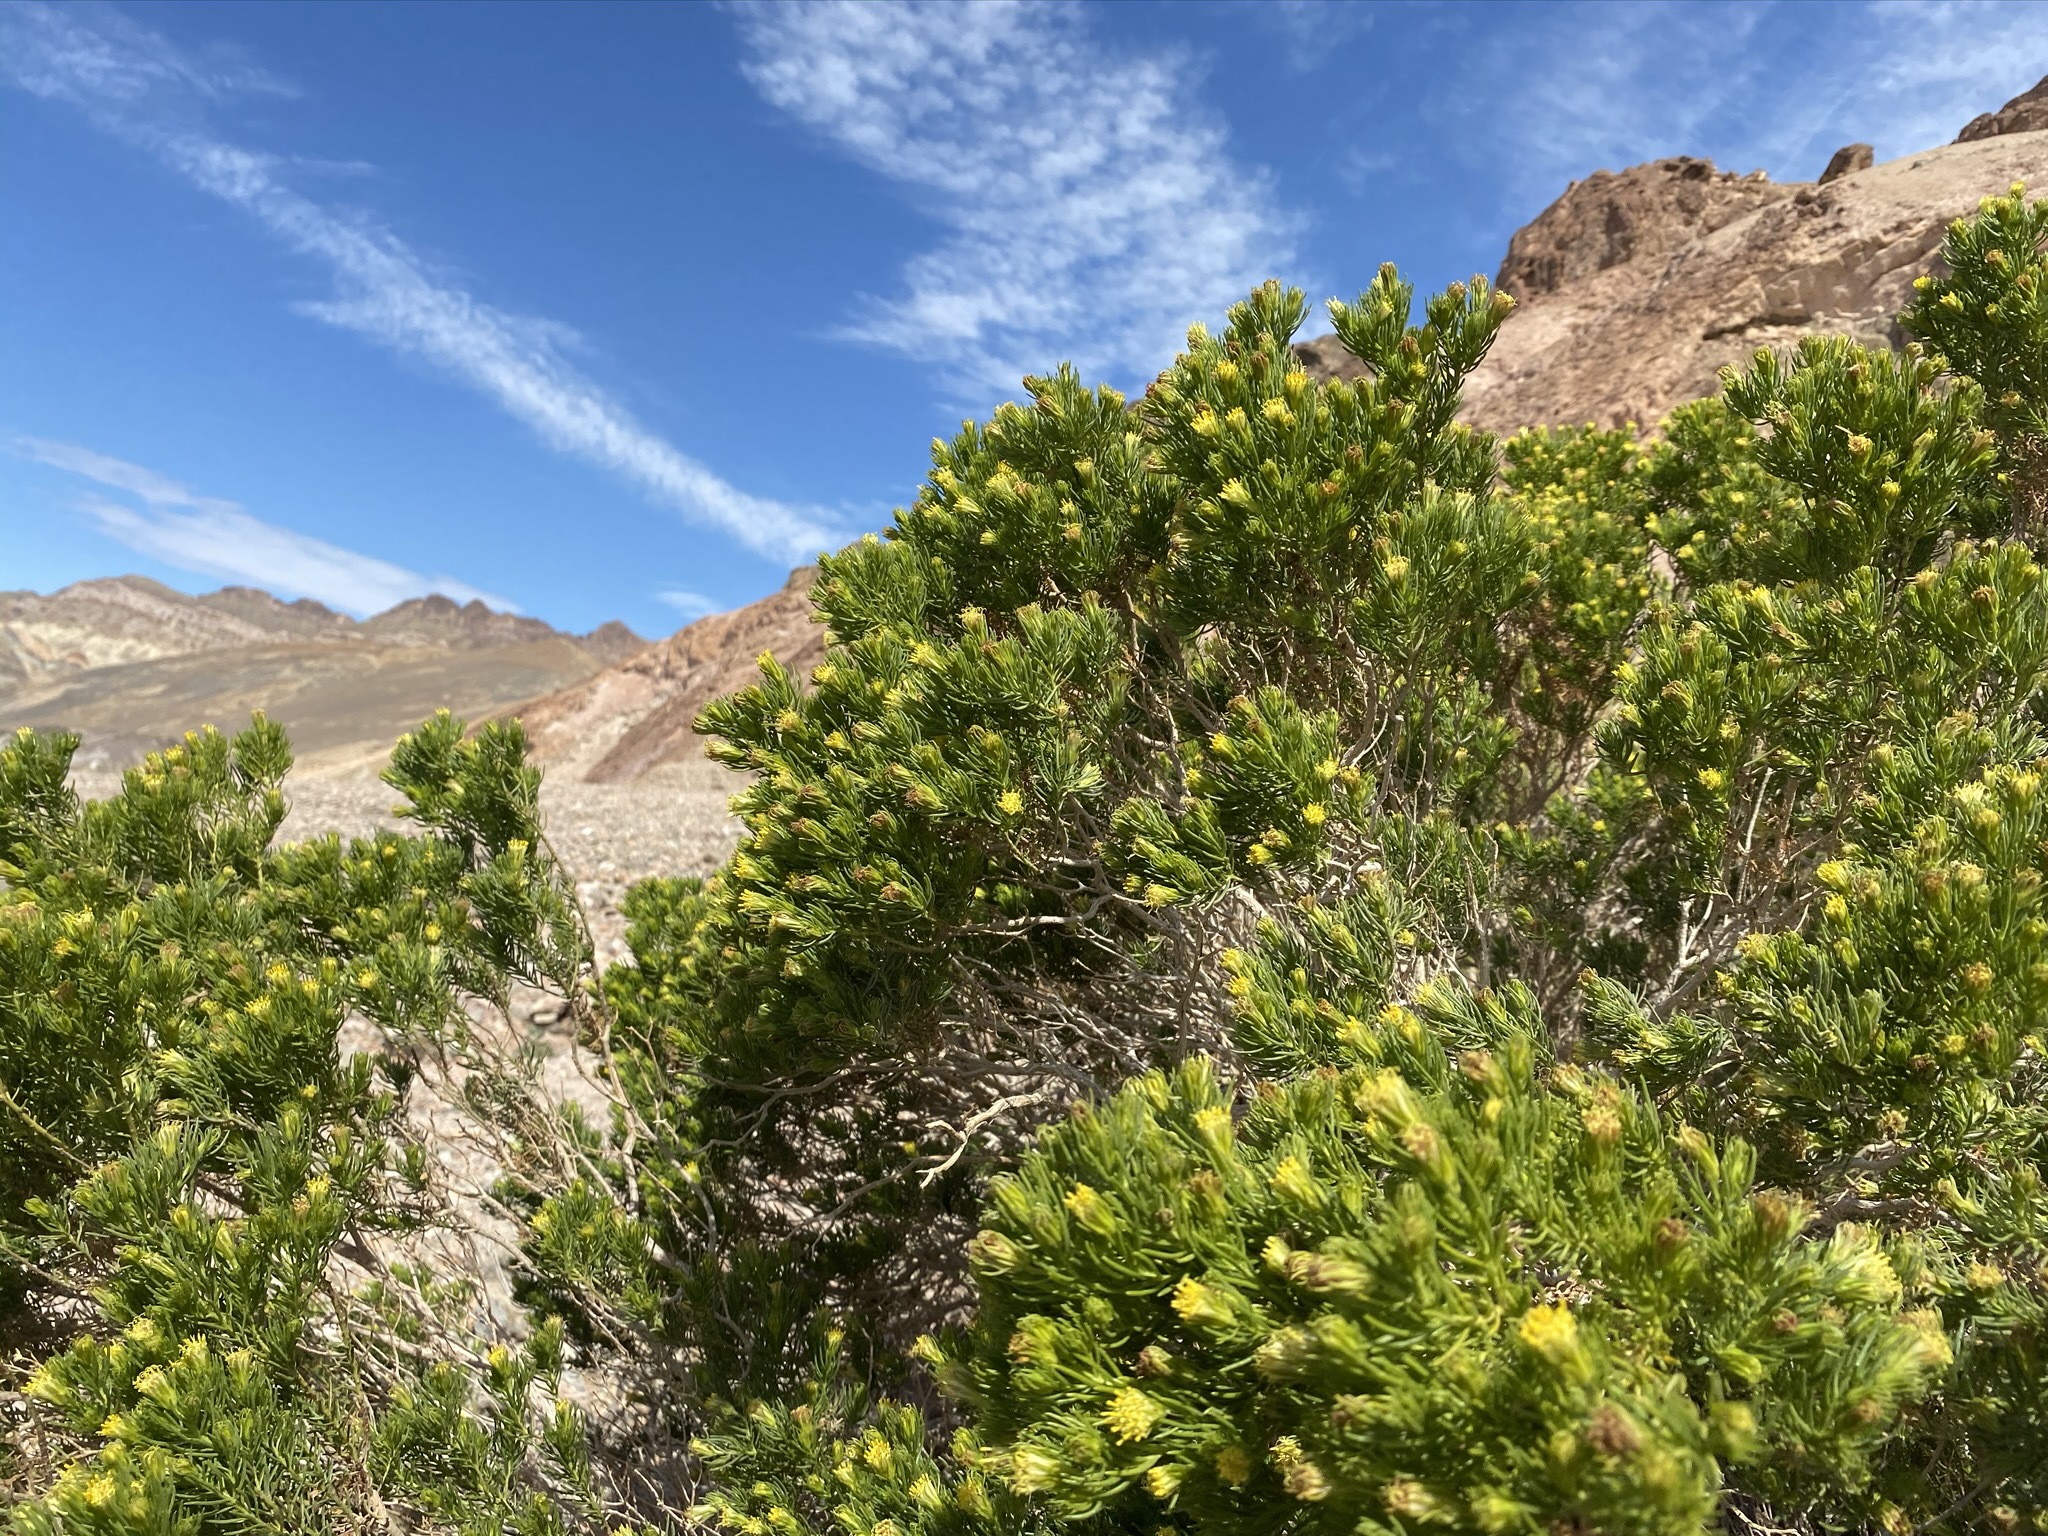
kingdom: Plantae
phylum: Tracheophyta
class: Magnoliopsida
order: Asterales
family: Asteraceae
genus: Peucephyllum
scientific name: Peucephyllum schottii
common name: Pygmy-cedar
